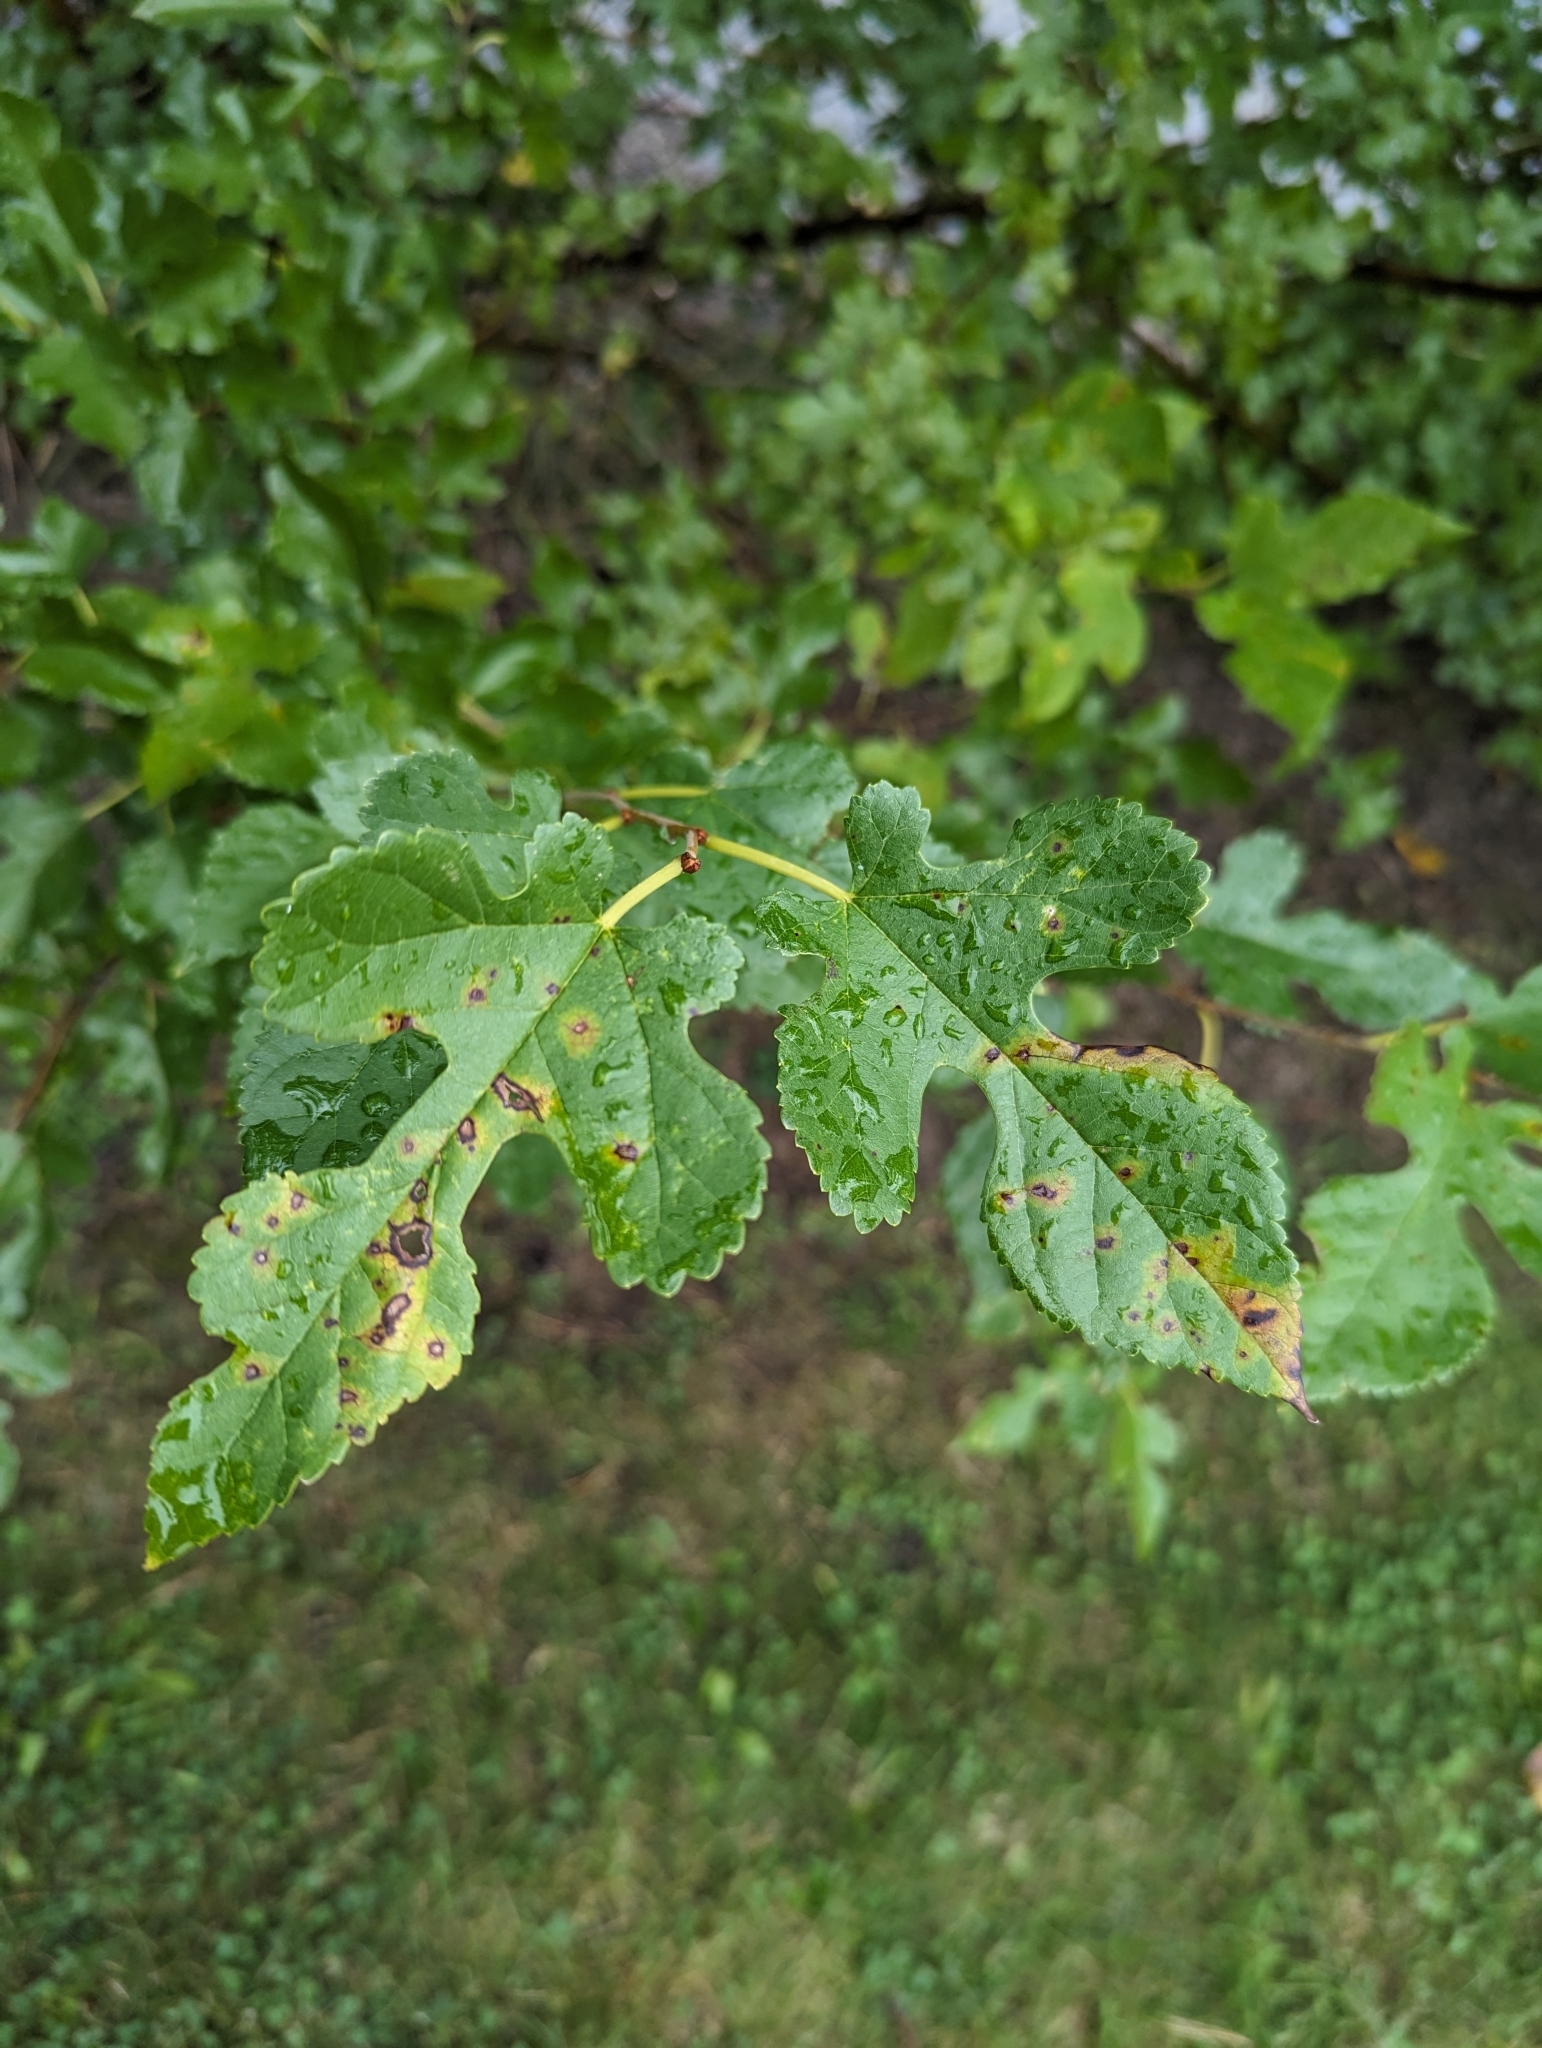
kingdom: Plantae
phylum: Tracheophyta
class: Magnoliopsida
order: Rosales
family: Moraceae
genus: Morus
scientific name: Morus alba
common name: White mulberry
